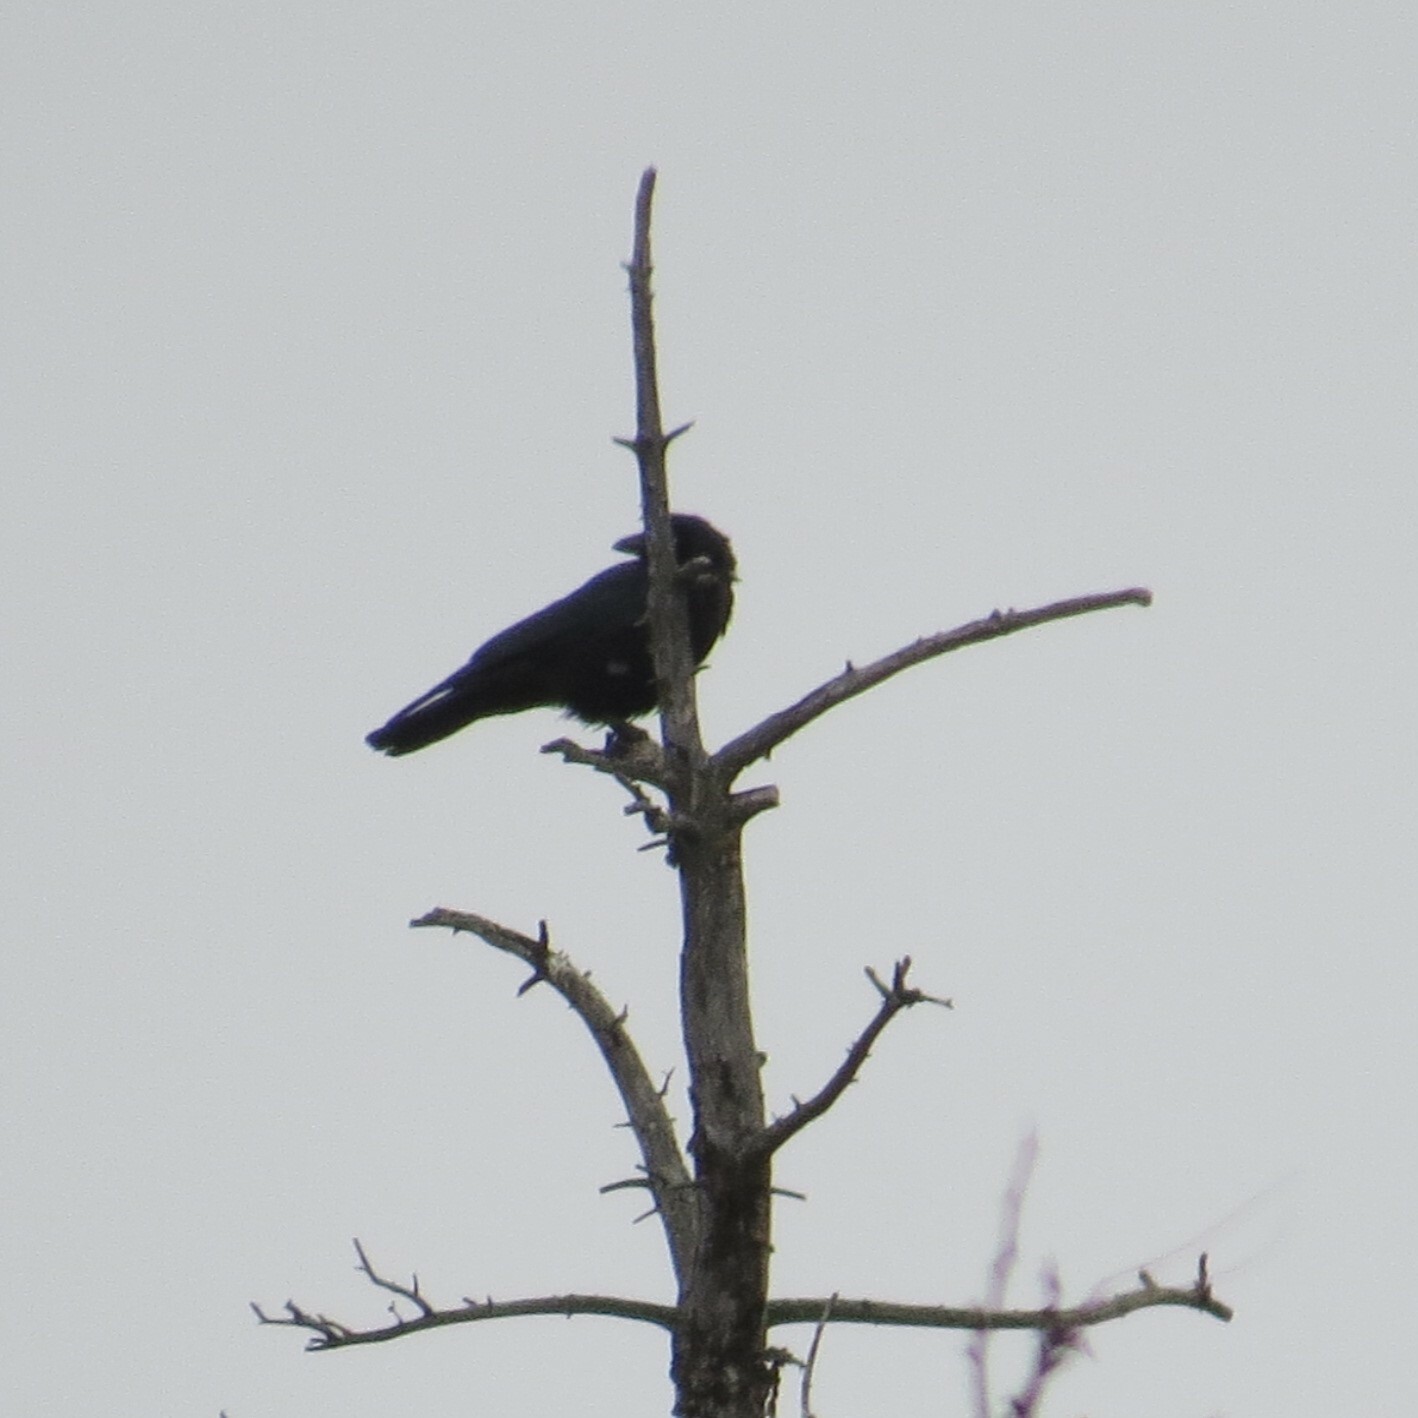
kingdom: Animalia
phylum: Chordata
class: Aves
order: Passeriformes
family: Corvidae
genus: Corvus
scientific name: Corvus brachyrhynchos
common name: American crow
